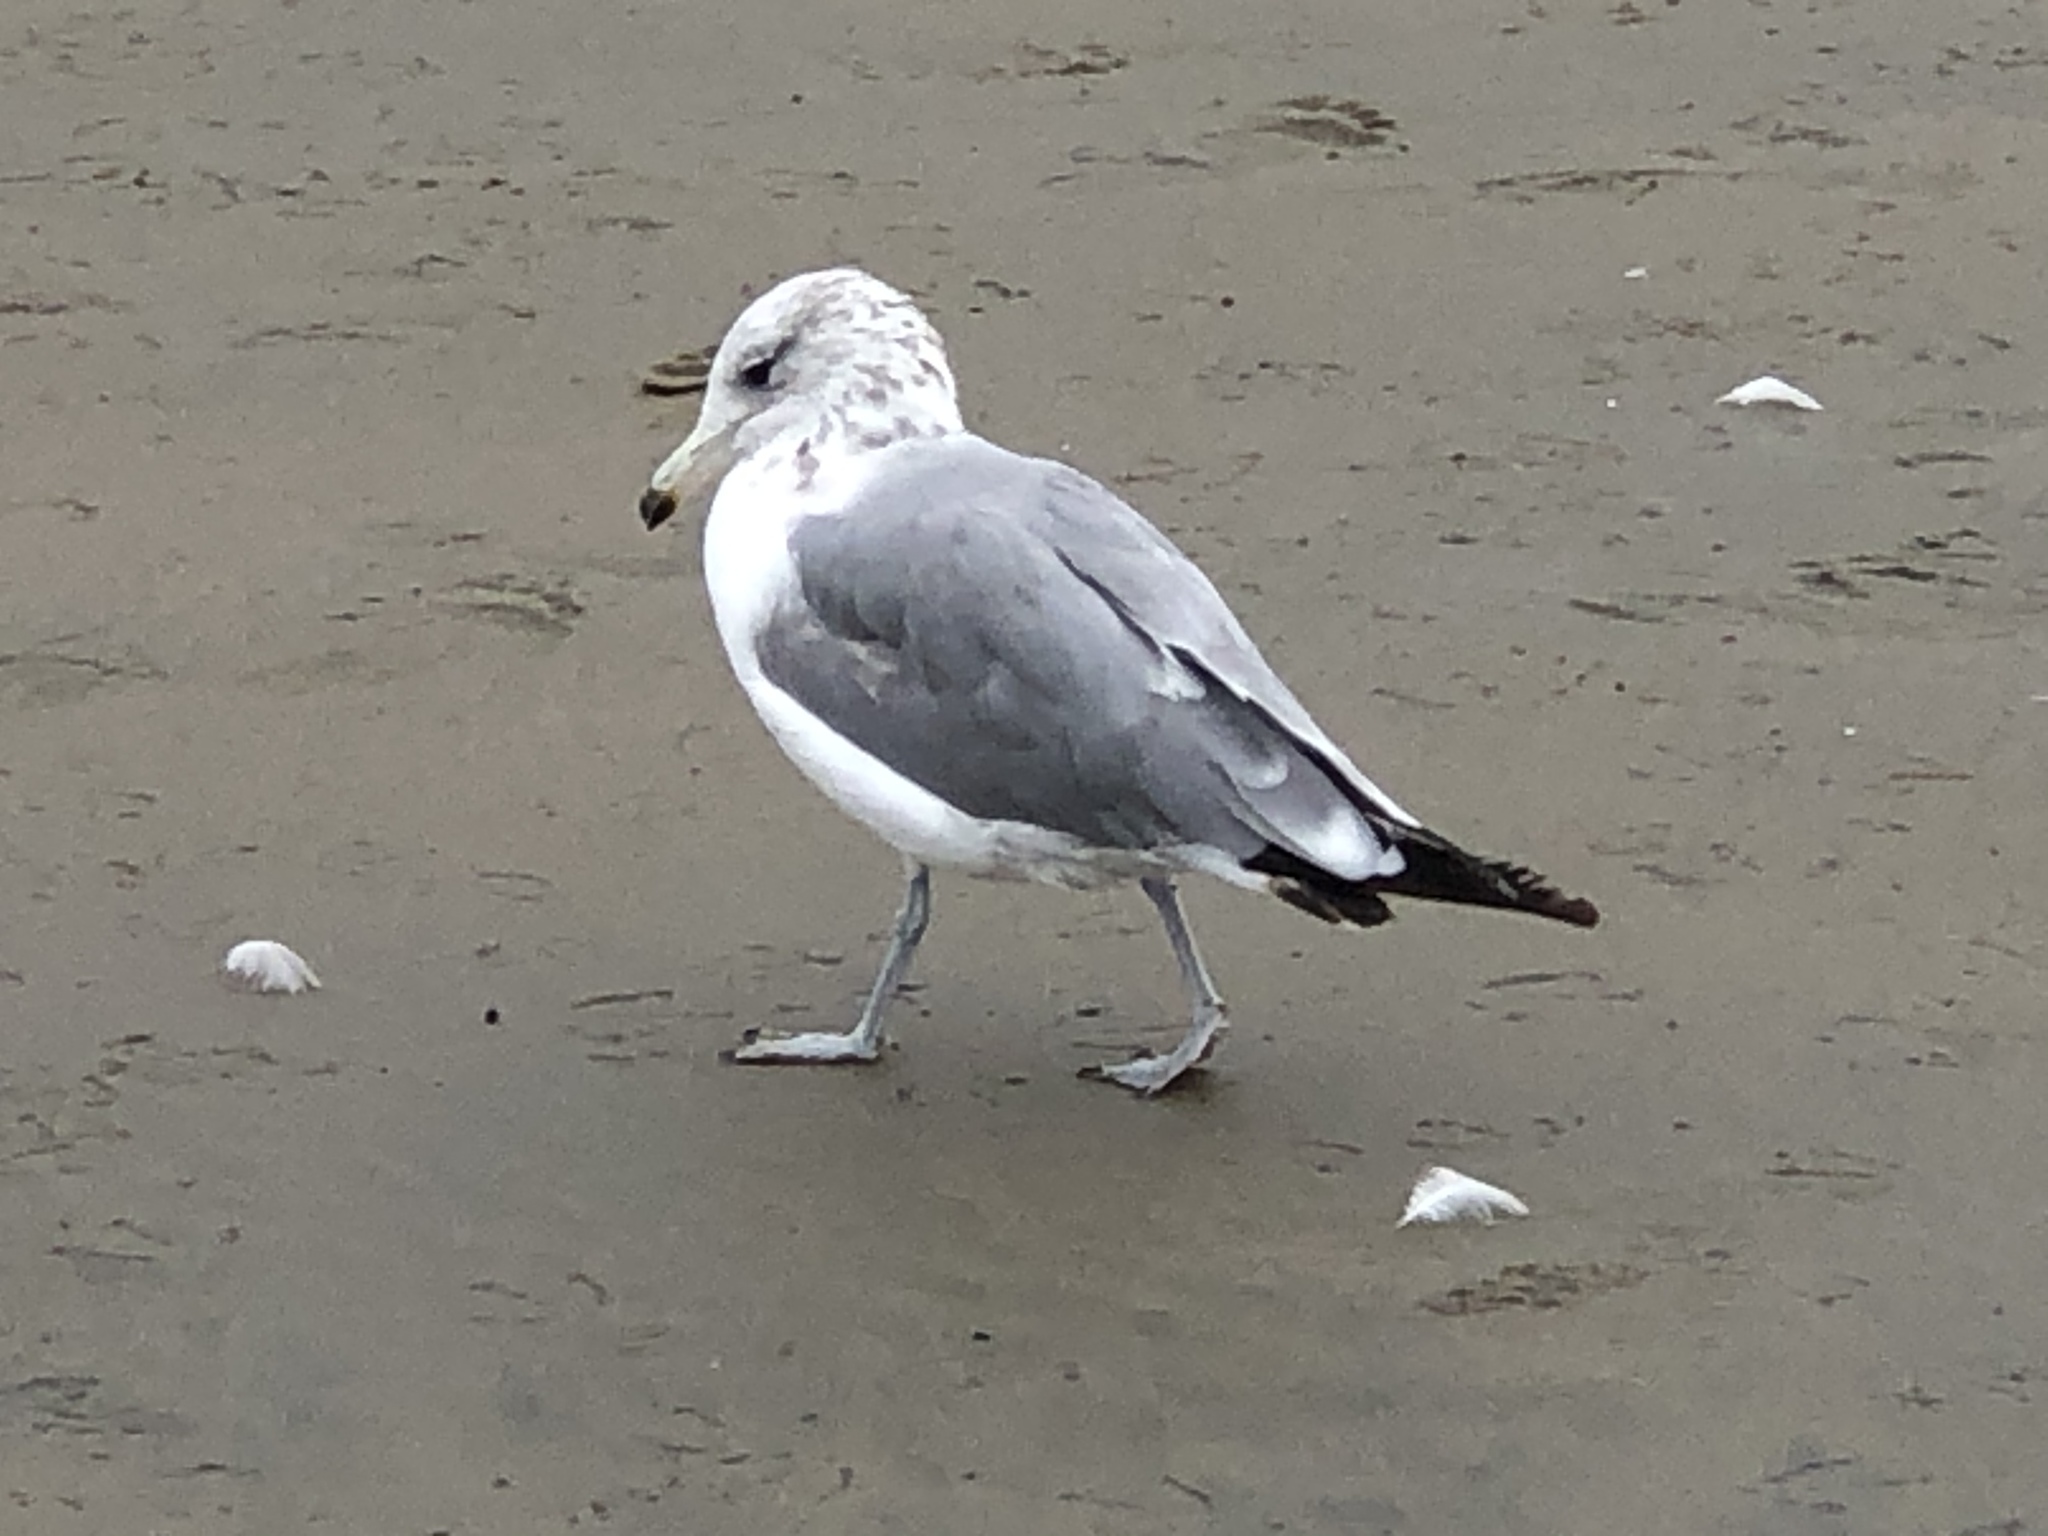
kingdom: Animalia
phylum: Chordata
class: Aves
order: Charadriiformes
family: Laridae
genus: Larus
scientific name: Larus californicus
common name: California gull
